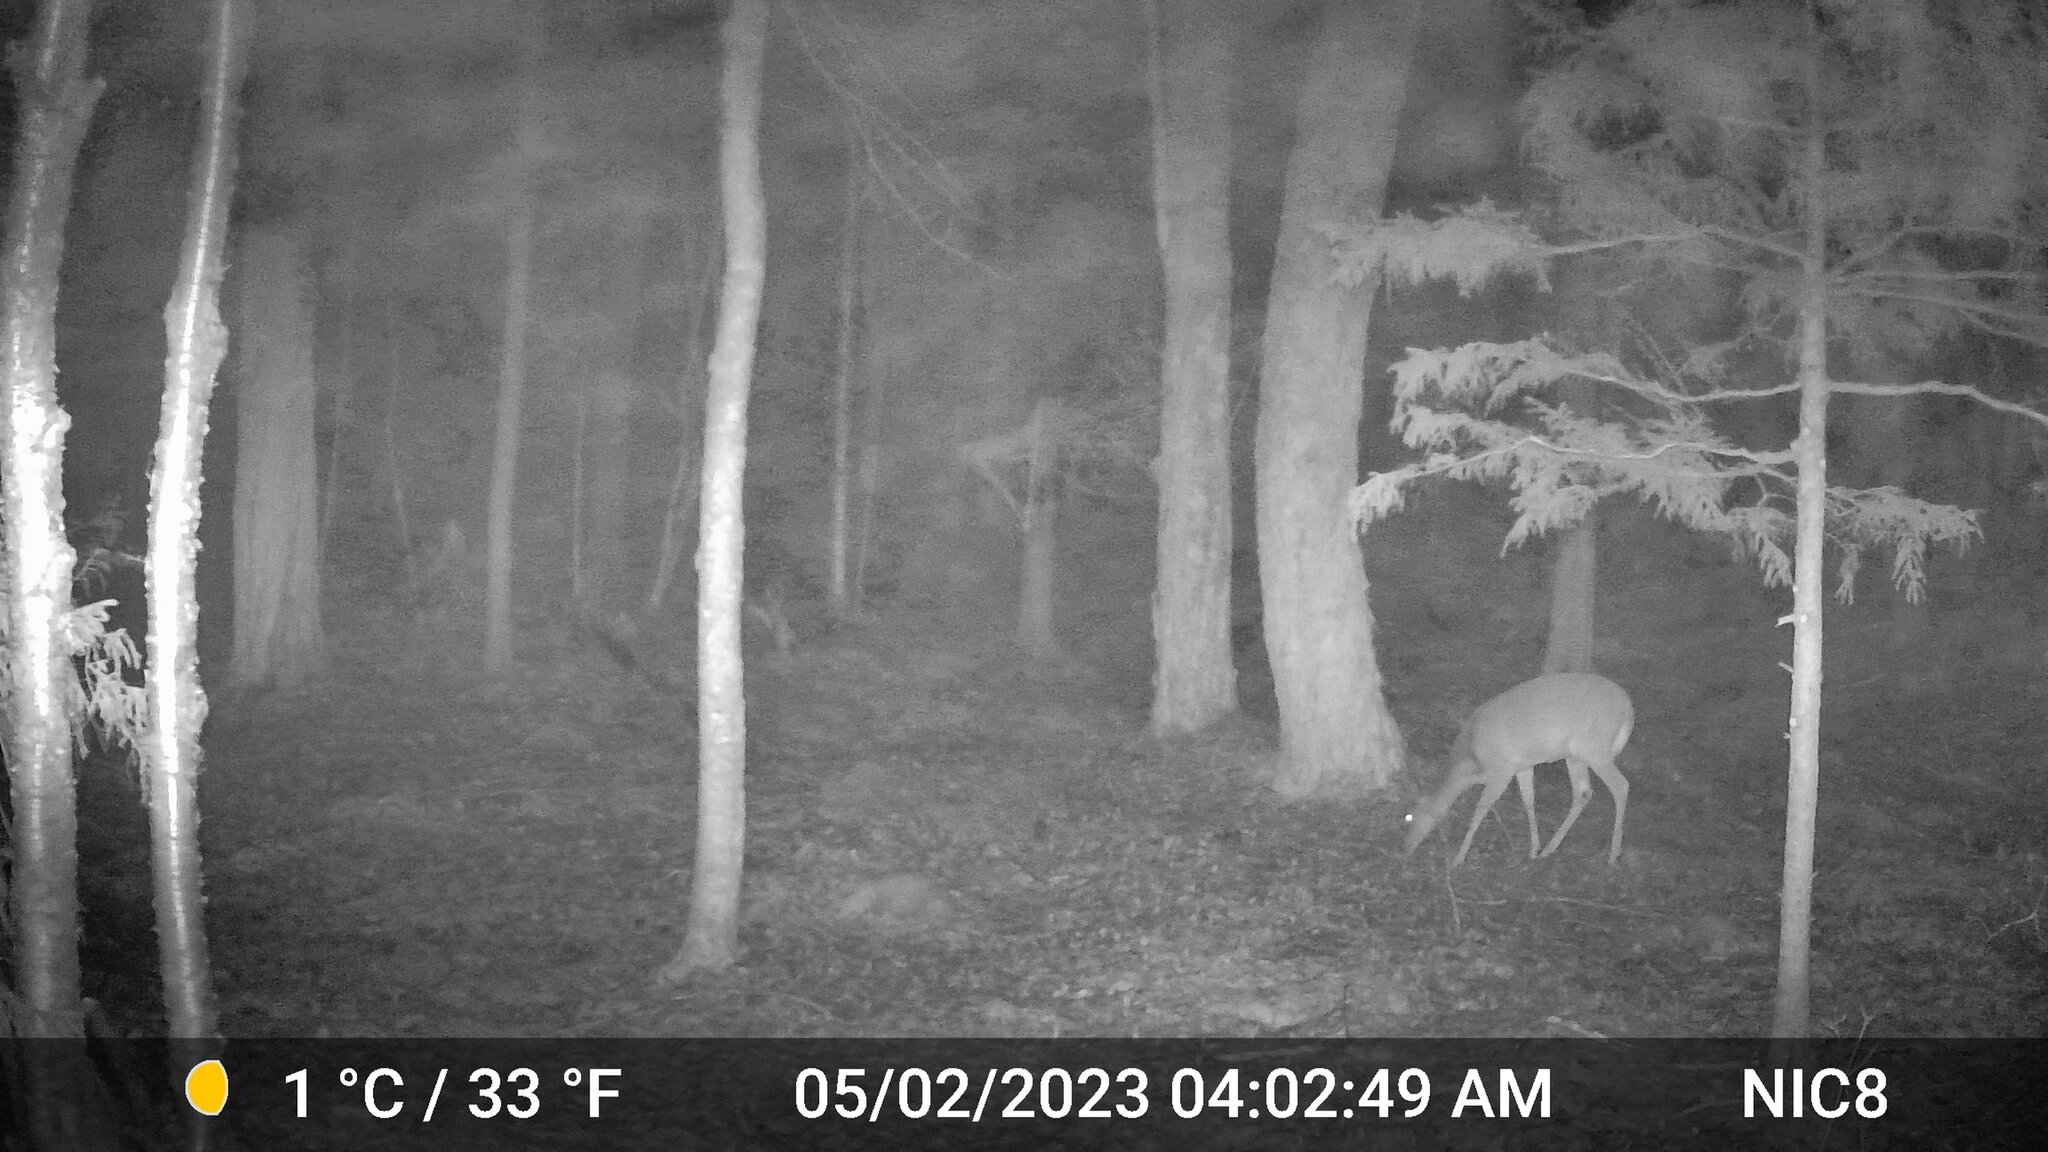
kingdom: Animalia
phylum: Chordata
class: Mammalia
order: Artiodactyla
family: Cervidae
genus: Odocoileus
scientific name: Odocoileus virginianus
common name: White-tailed deer
